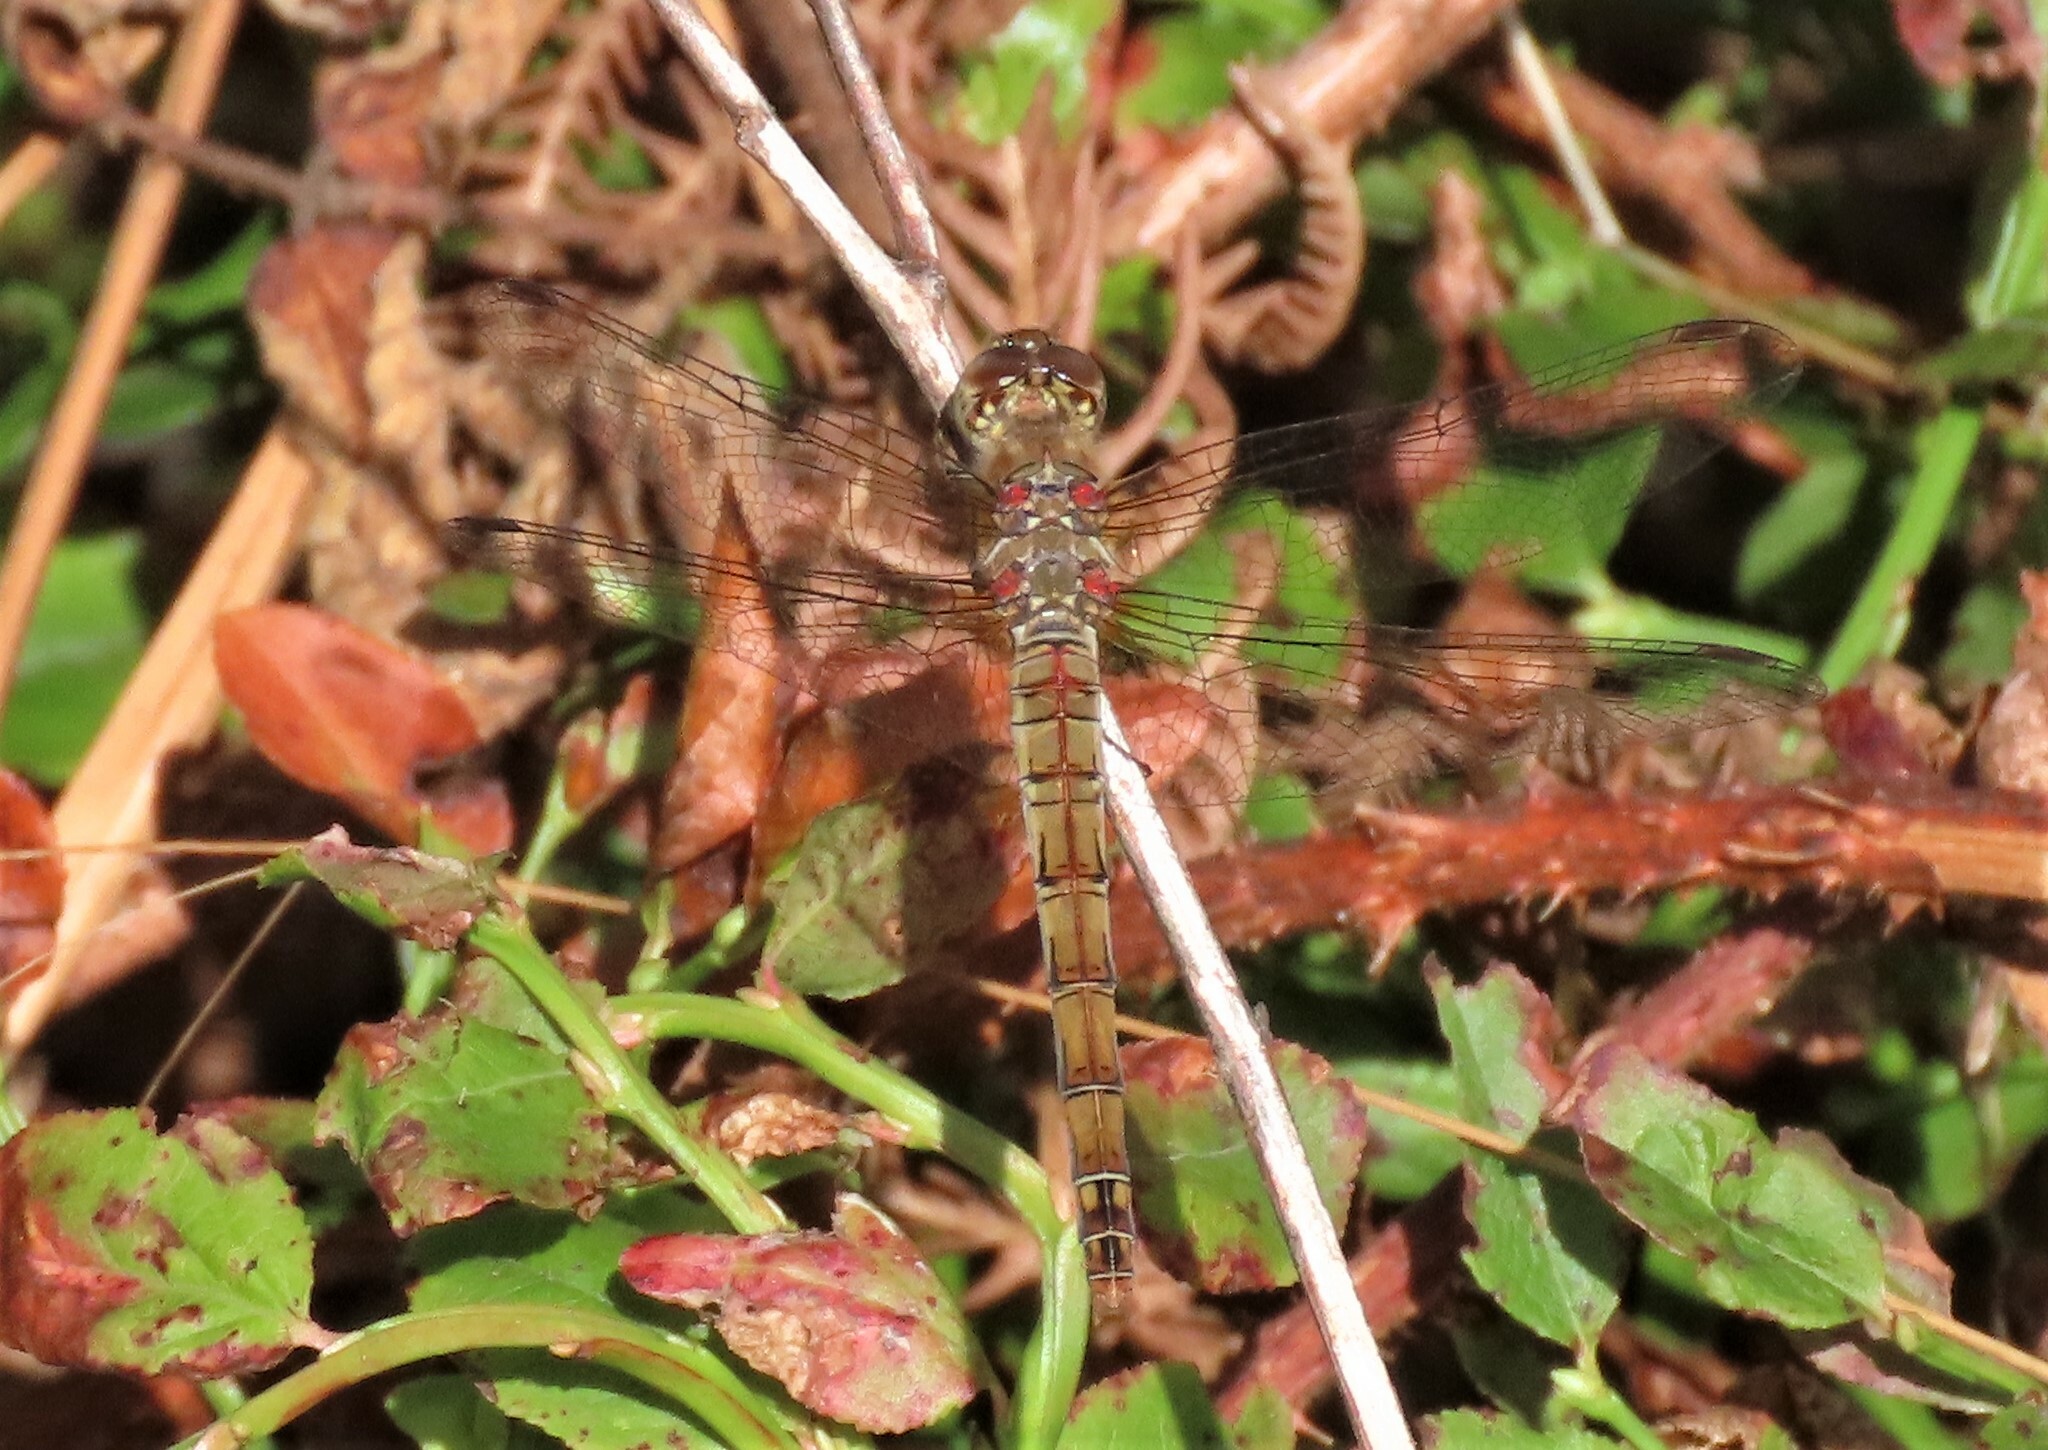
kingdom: Animalia
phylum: Arthropoda
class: Insecta
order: Odonata
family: Libellulidae
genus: Sympetrum
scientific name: Sympetrum striolatum
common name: Common darter
